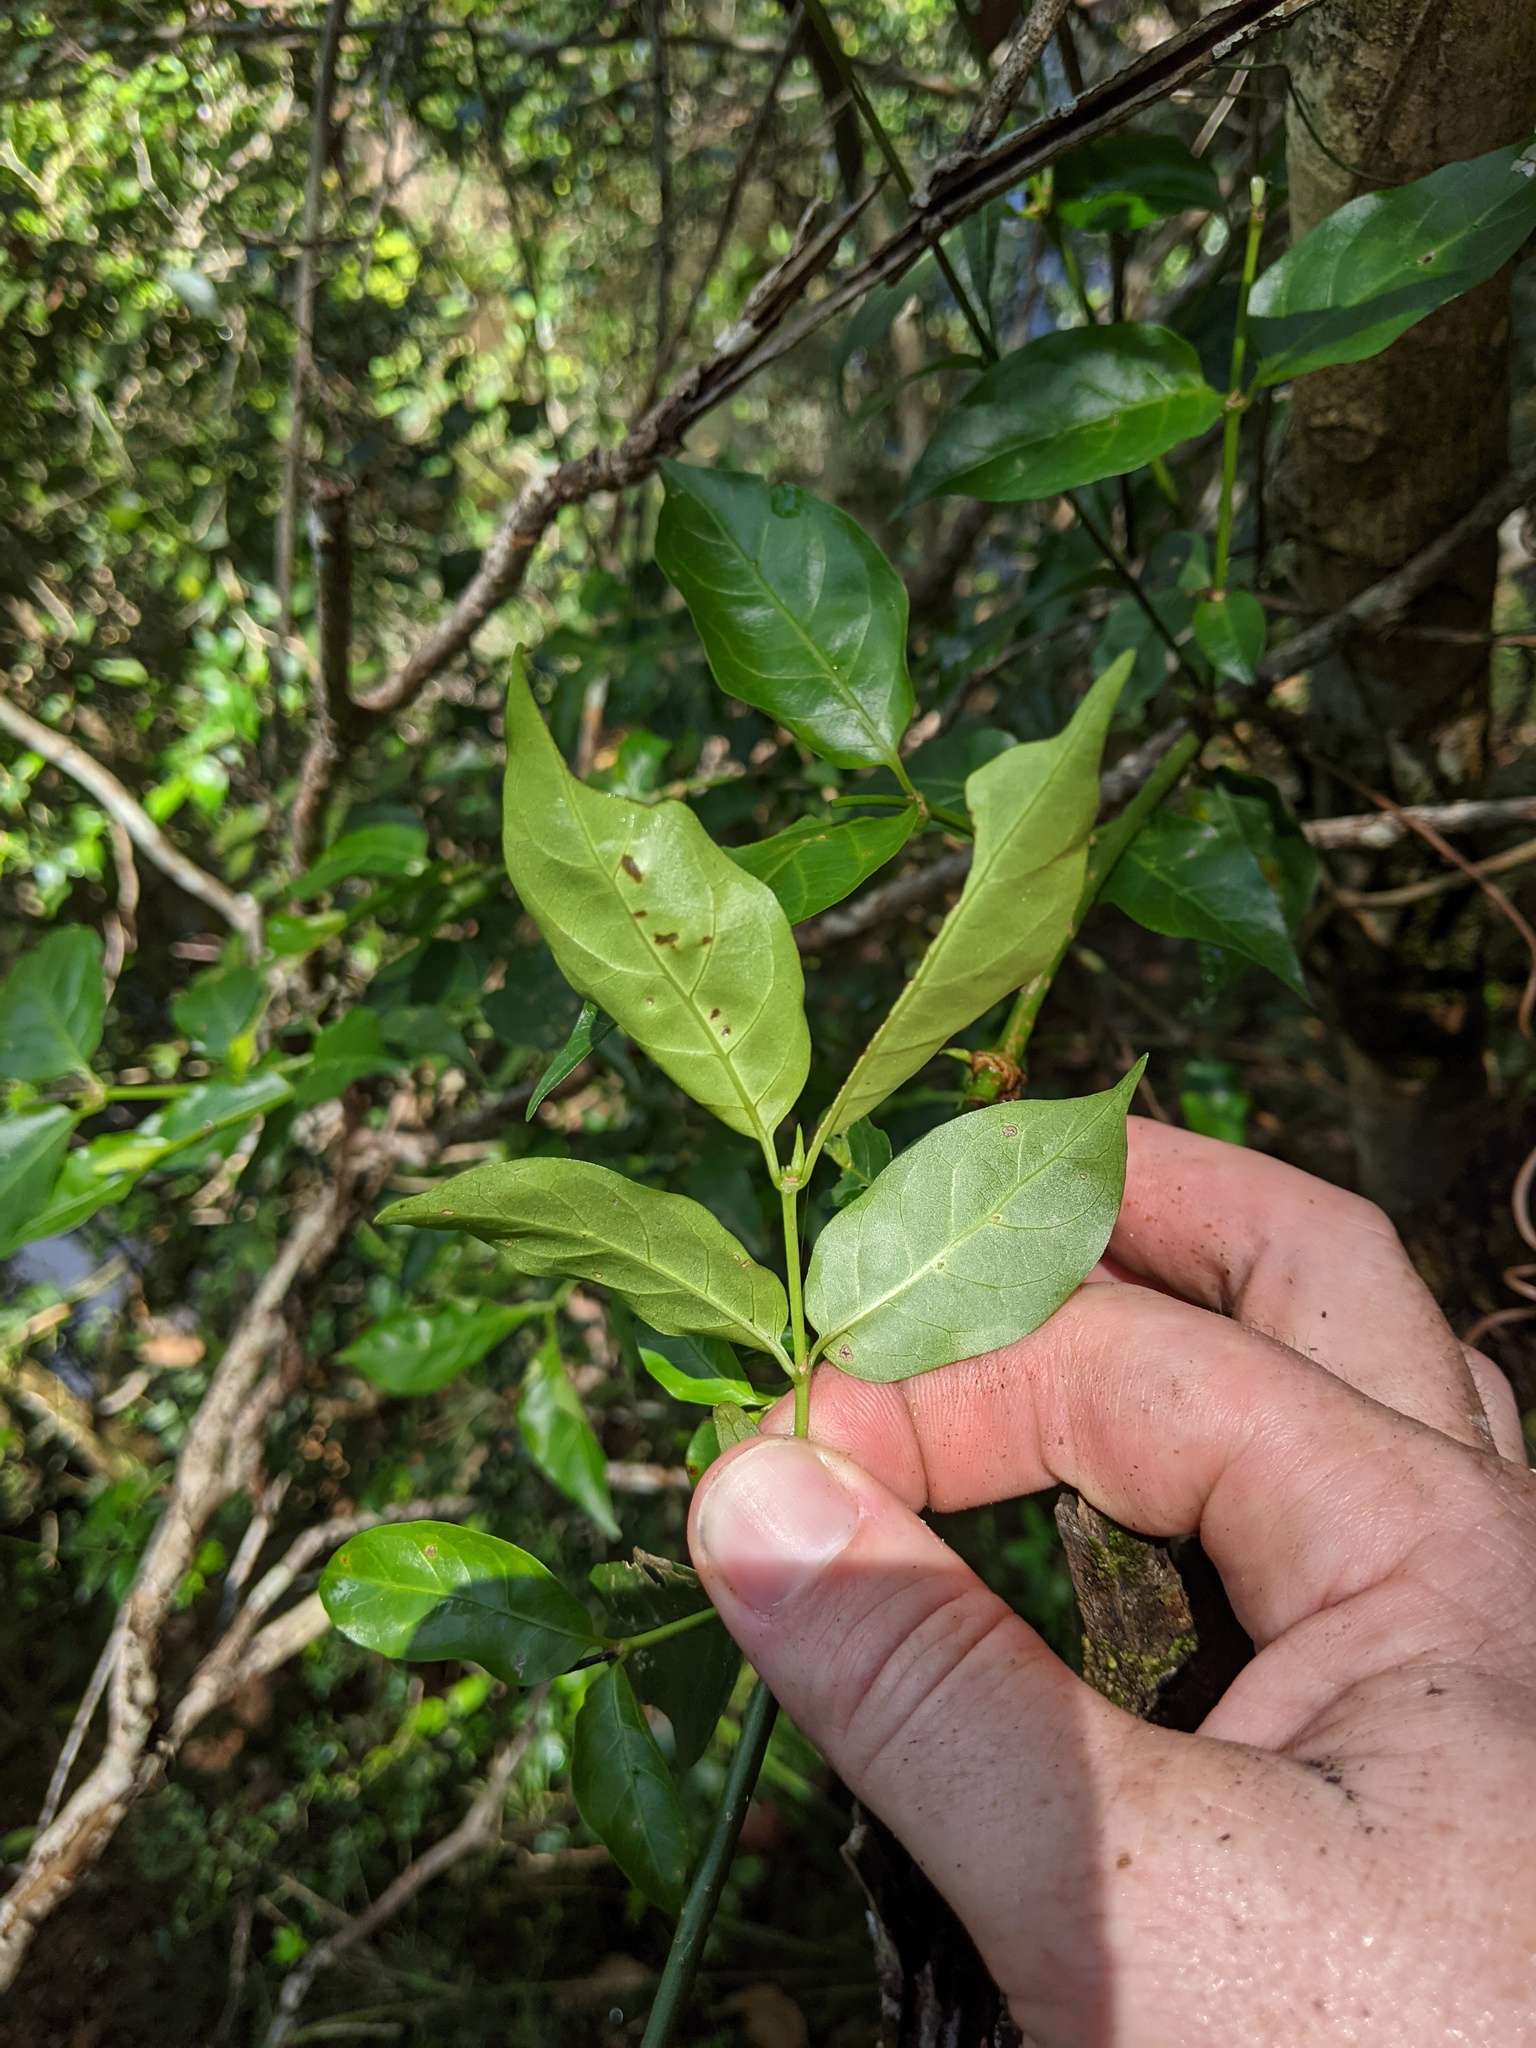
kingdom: Plantae
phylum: Tracheophyta
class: Magnoliopsida
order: Gentianales
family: Rubiaceae
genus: Gynochthodes
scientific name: Gynochthodes jasminoides
